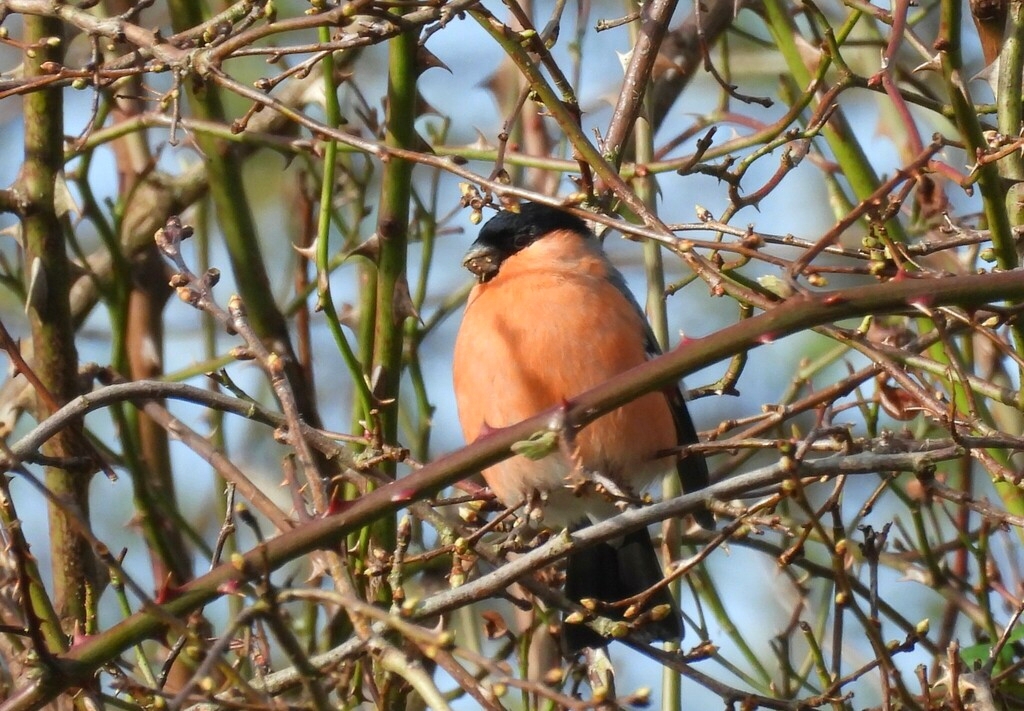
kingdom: Animalia
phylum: Chordata
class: Aves
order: Passeriformes
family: Fringillidae
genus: Pyrrhula
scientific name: Pyrrhula pyrrhula
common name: Eurasian bullfinch
